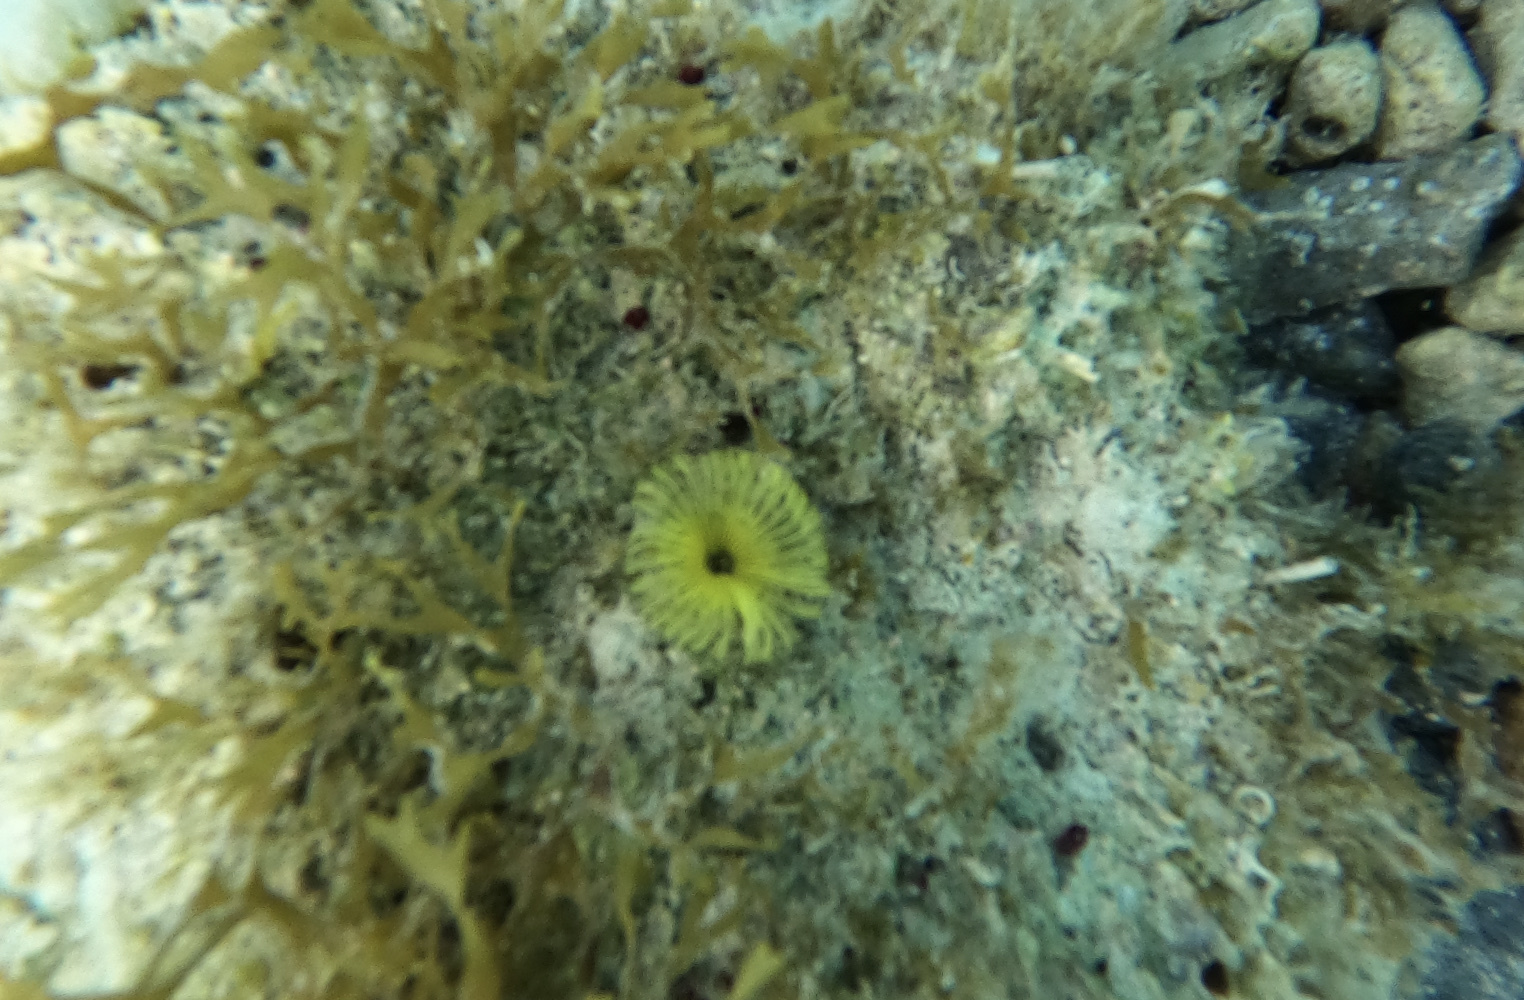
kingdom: Animalia
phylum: Annelida
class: Polychaeta
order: Sabellida
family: Sabellidae
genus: Notaulax
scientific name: Notaulax occidentalis
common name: Yellow fanworm
